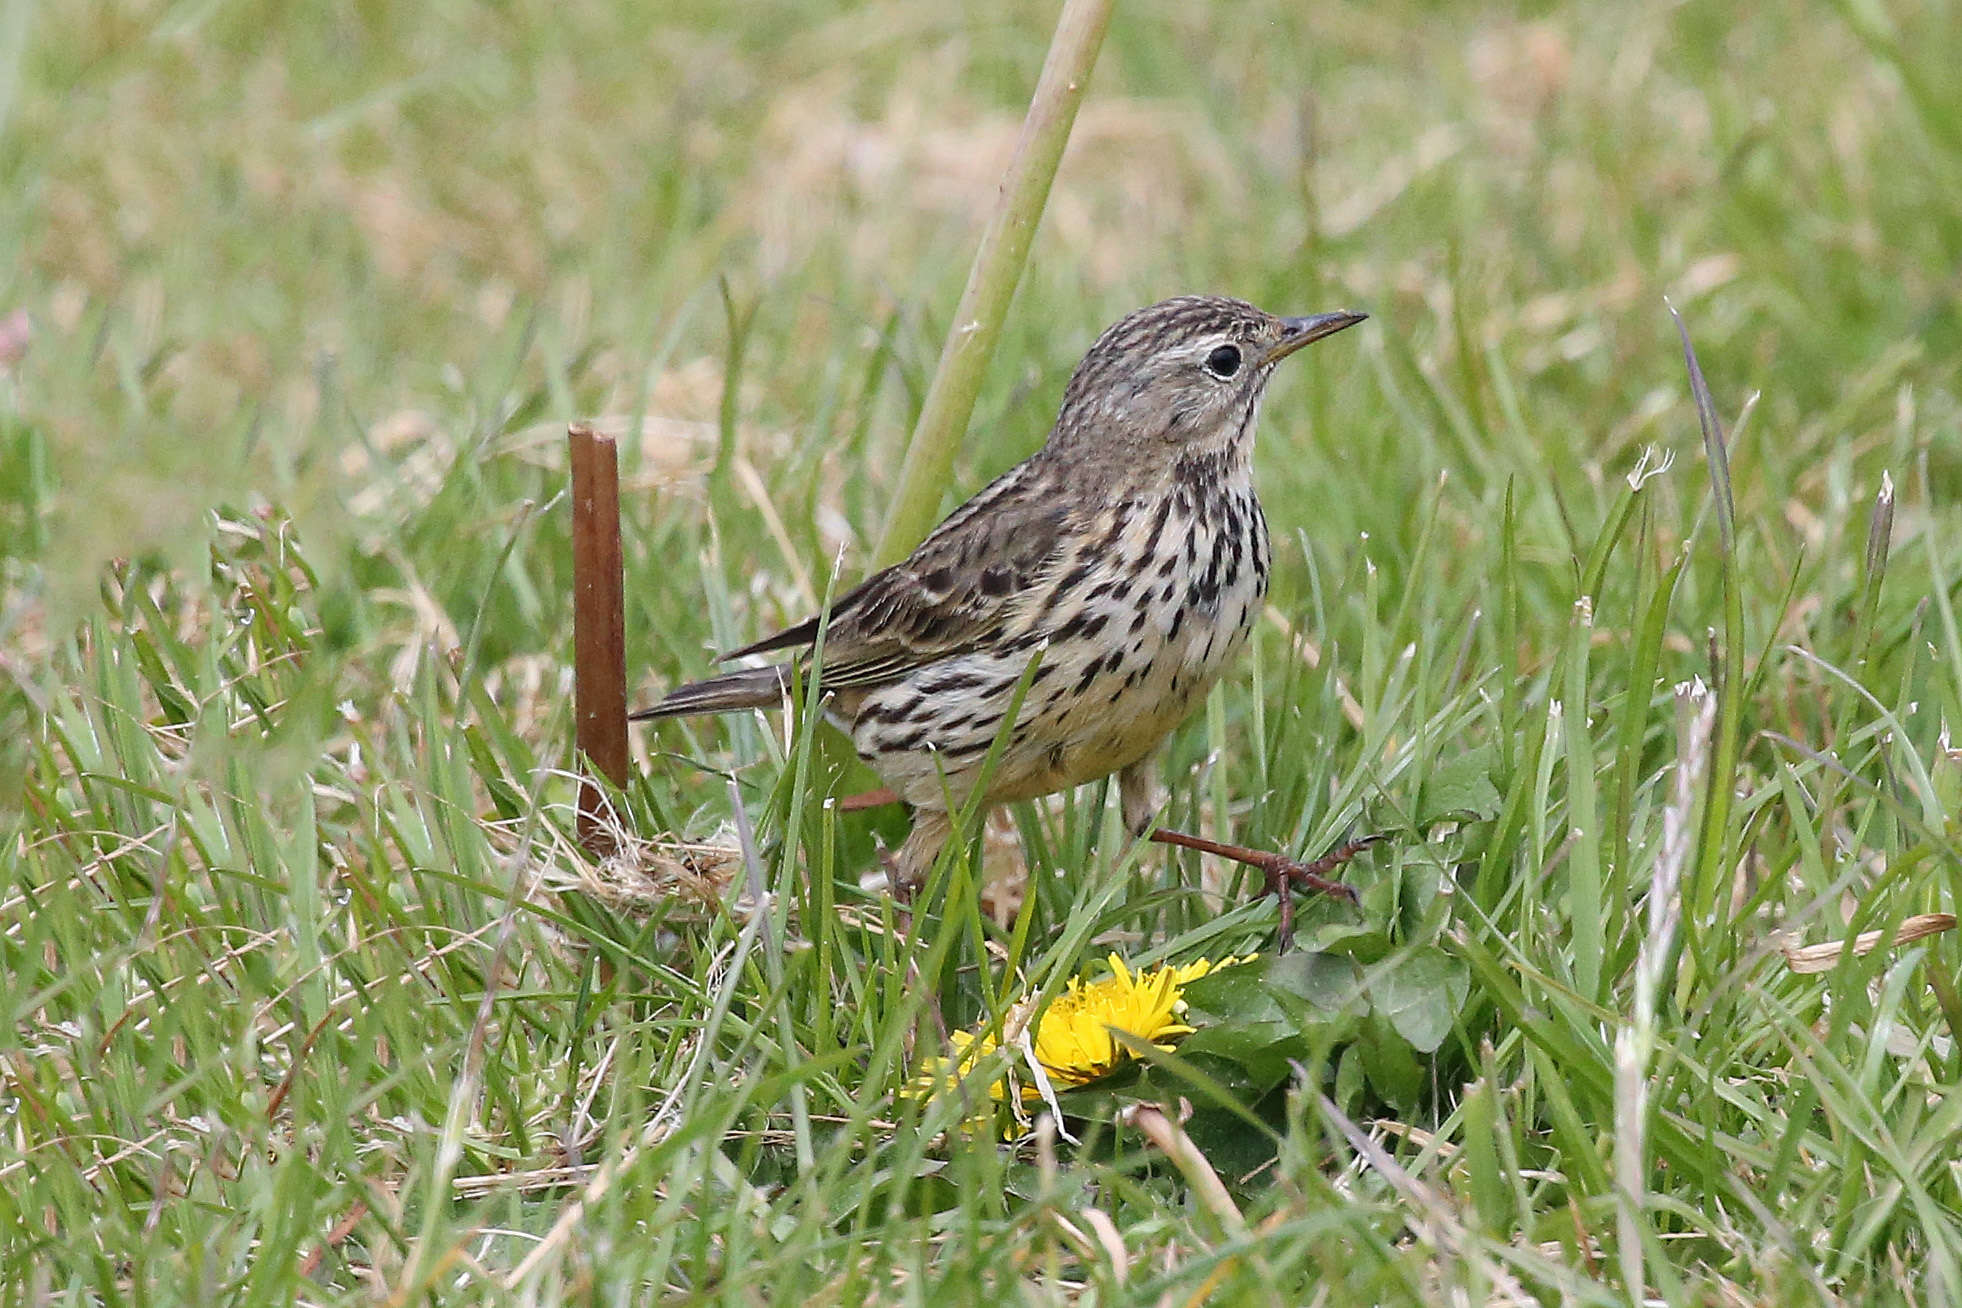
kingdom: Animalia
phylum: Chordata
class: Aves
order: Passeriformes
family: Motacillidae
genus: Anthus
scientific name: Anthus pratensis
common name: Meadow pipit
